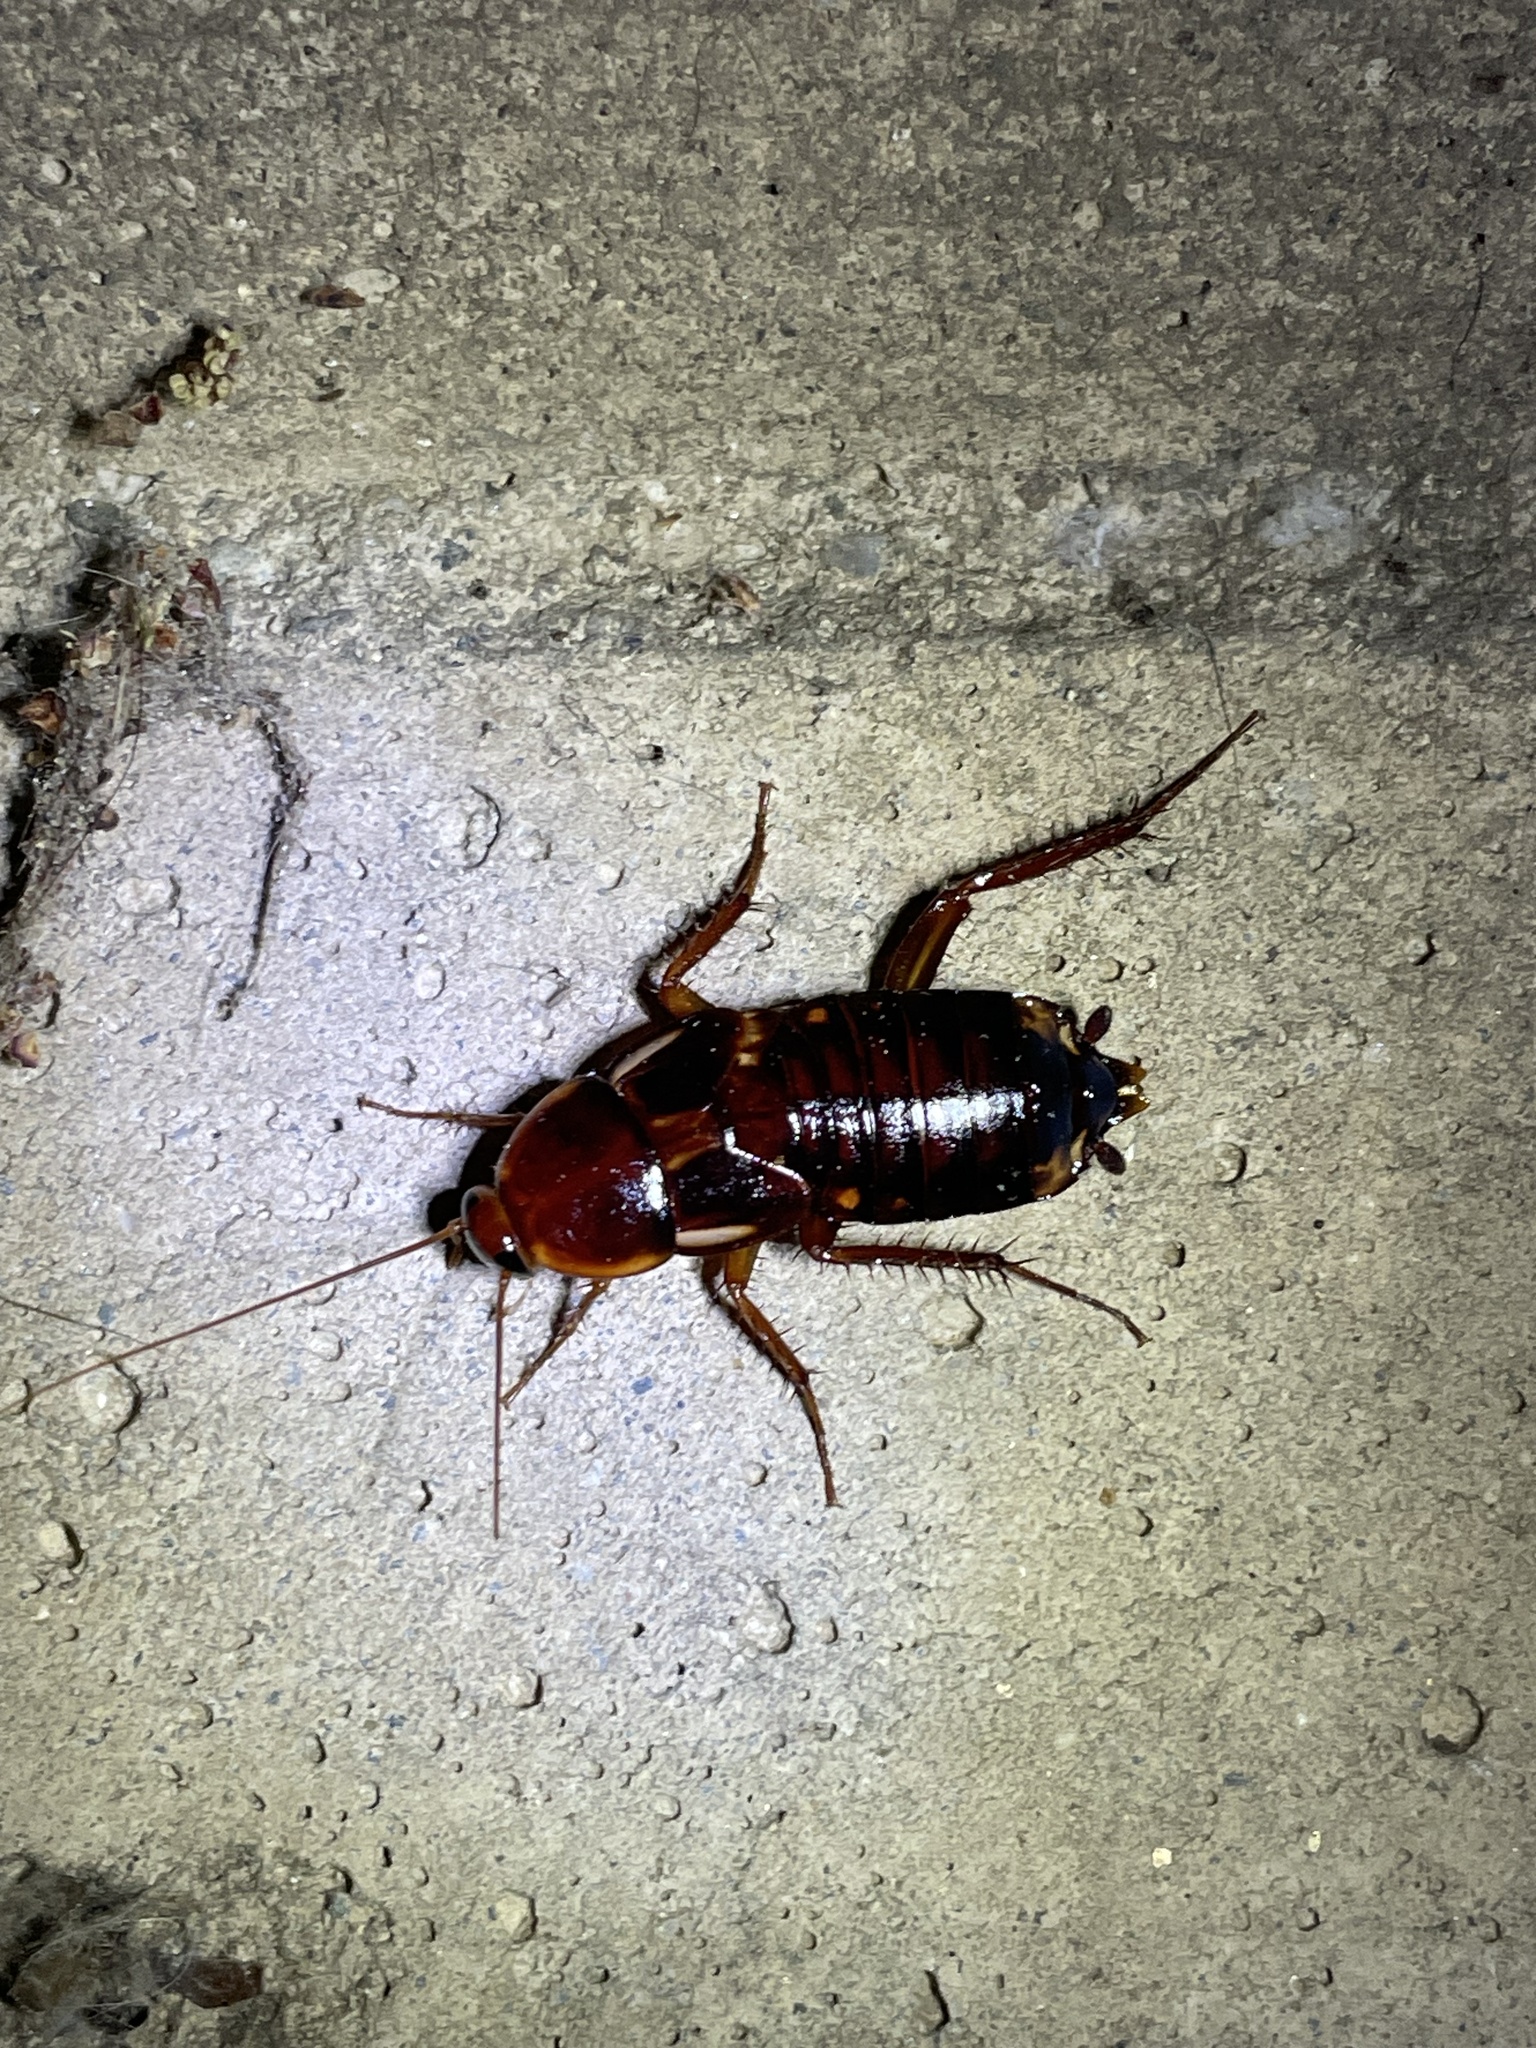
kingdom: Animalia
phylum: Arthropoda
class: Insecta
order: Blattodea
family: Blattidae
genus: Periplaneta
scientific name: Periplaneta lateralis
